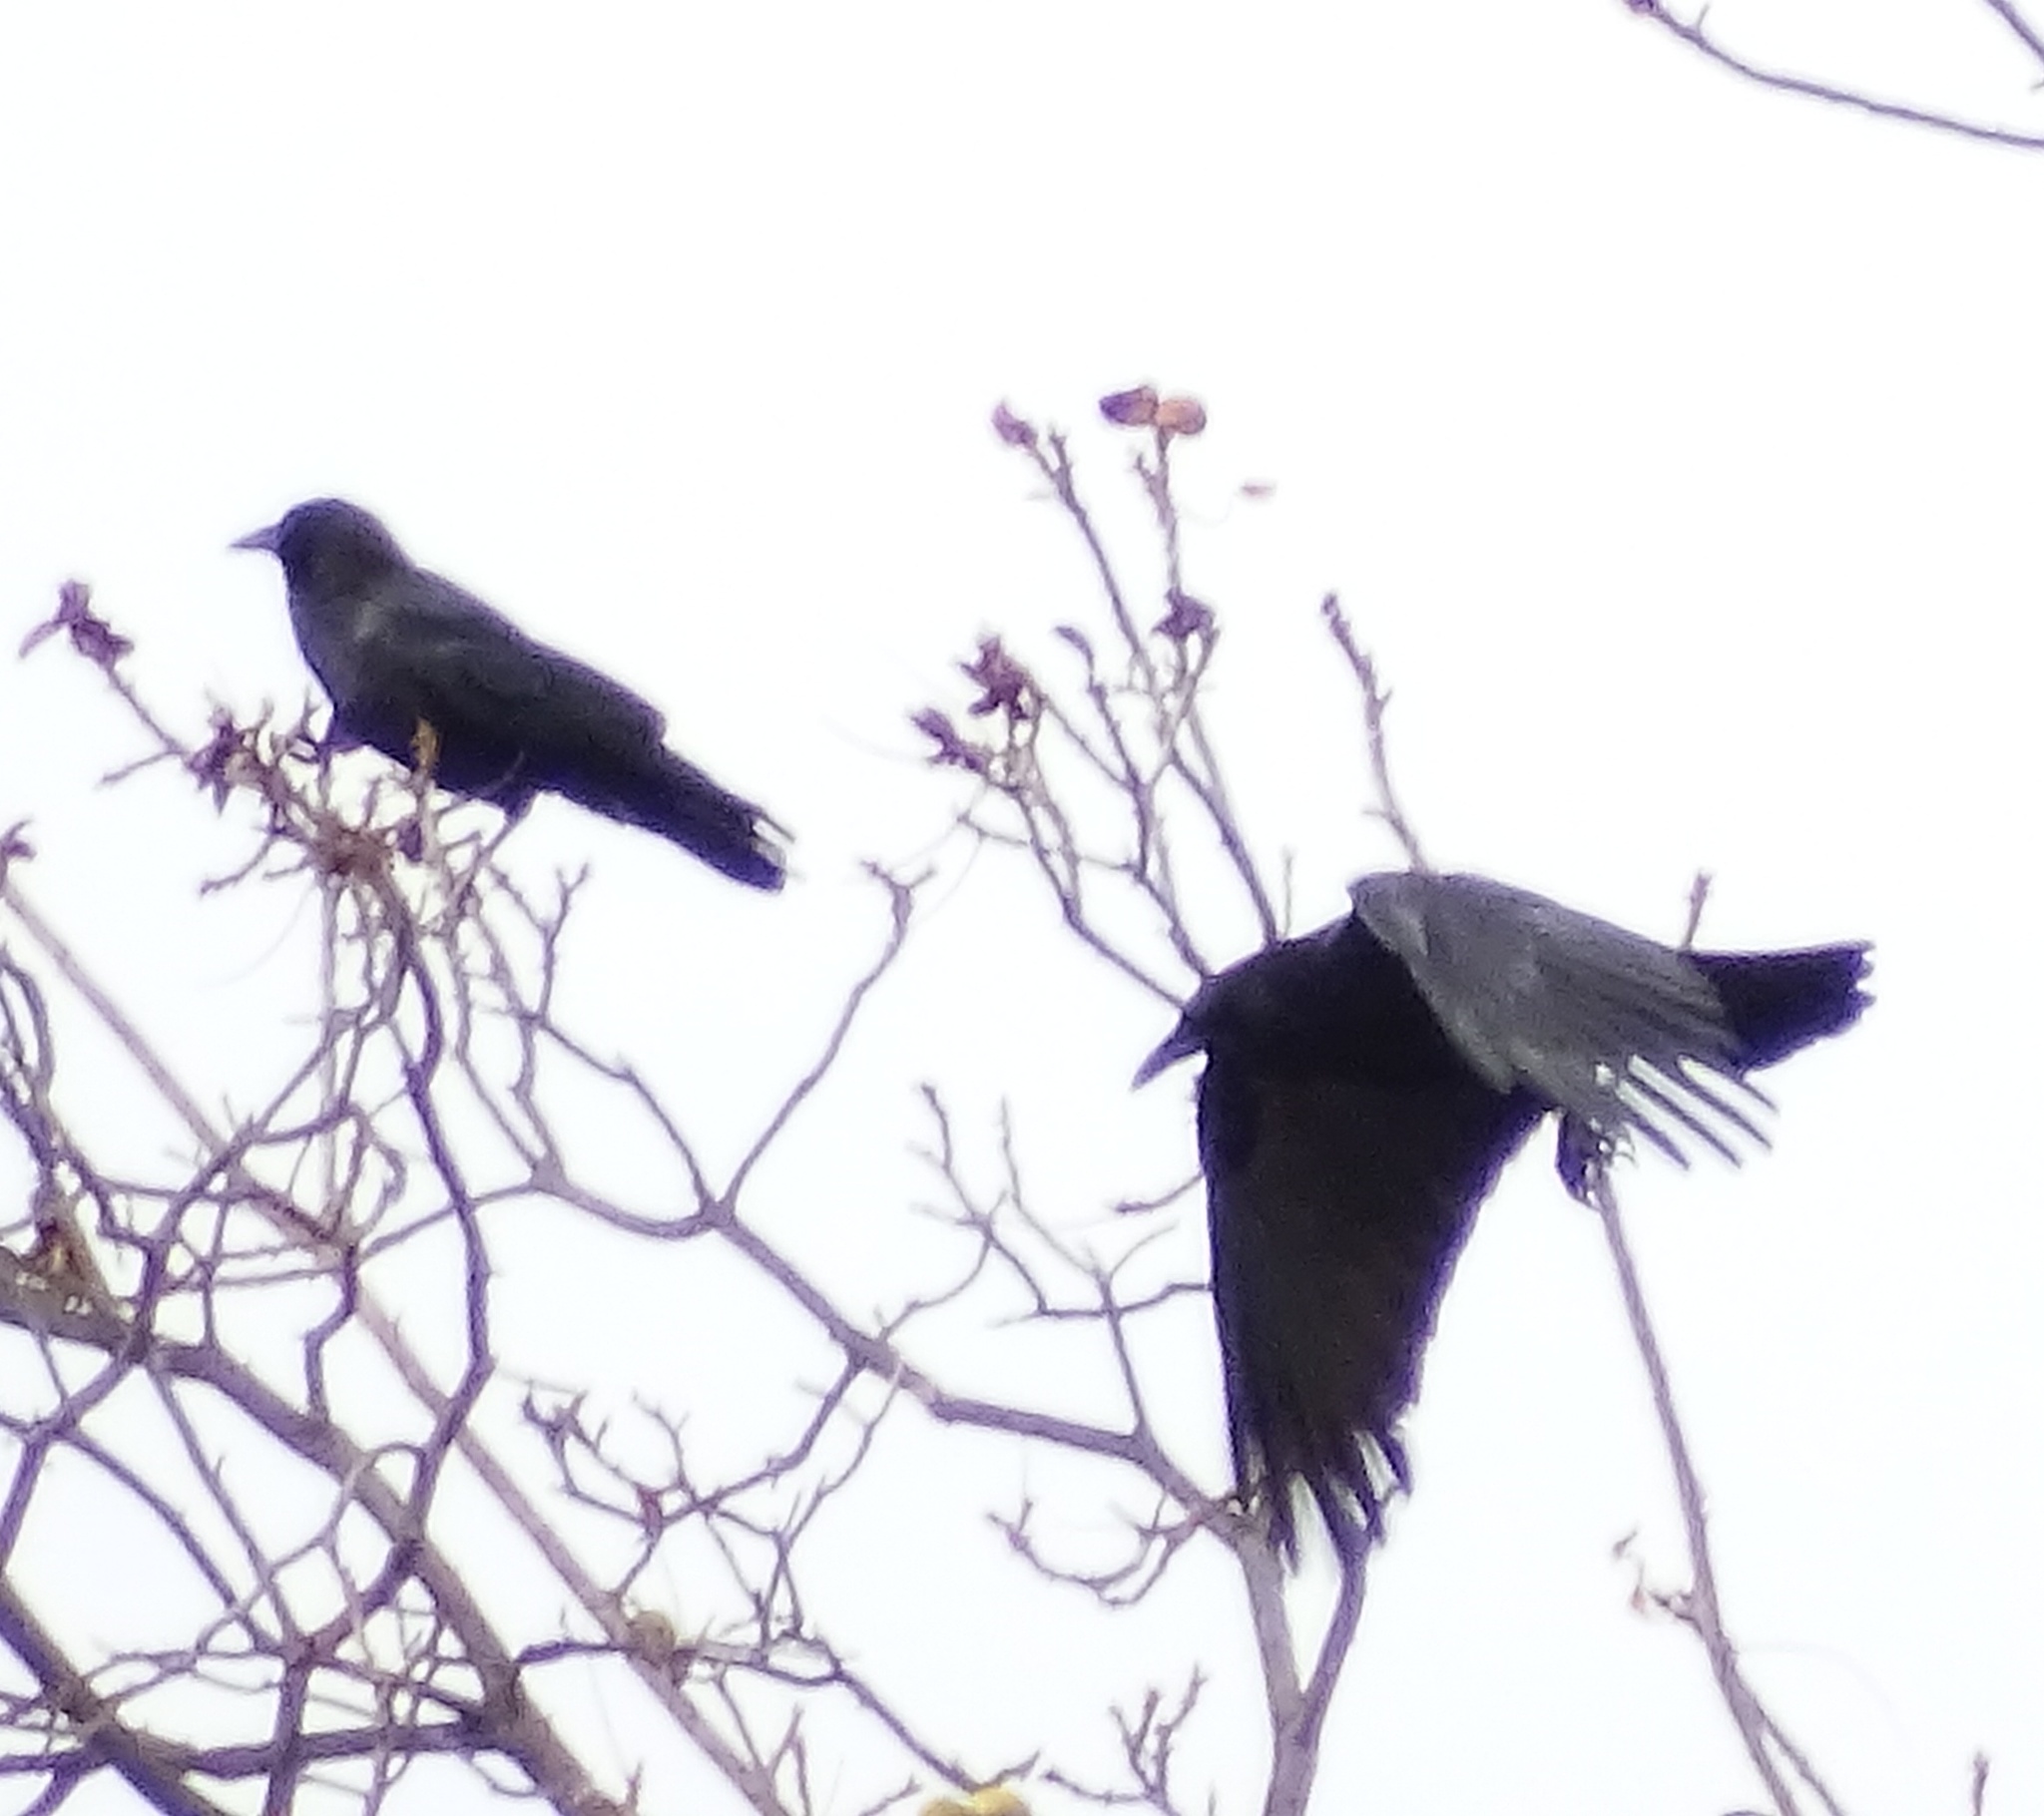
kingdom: Animalia
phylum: Chordata
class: Aves
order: Passeriformes
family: Corvidae
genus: Corvus
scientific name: Corvus brachyrhynchos
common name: American crow
